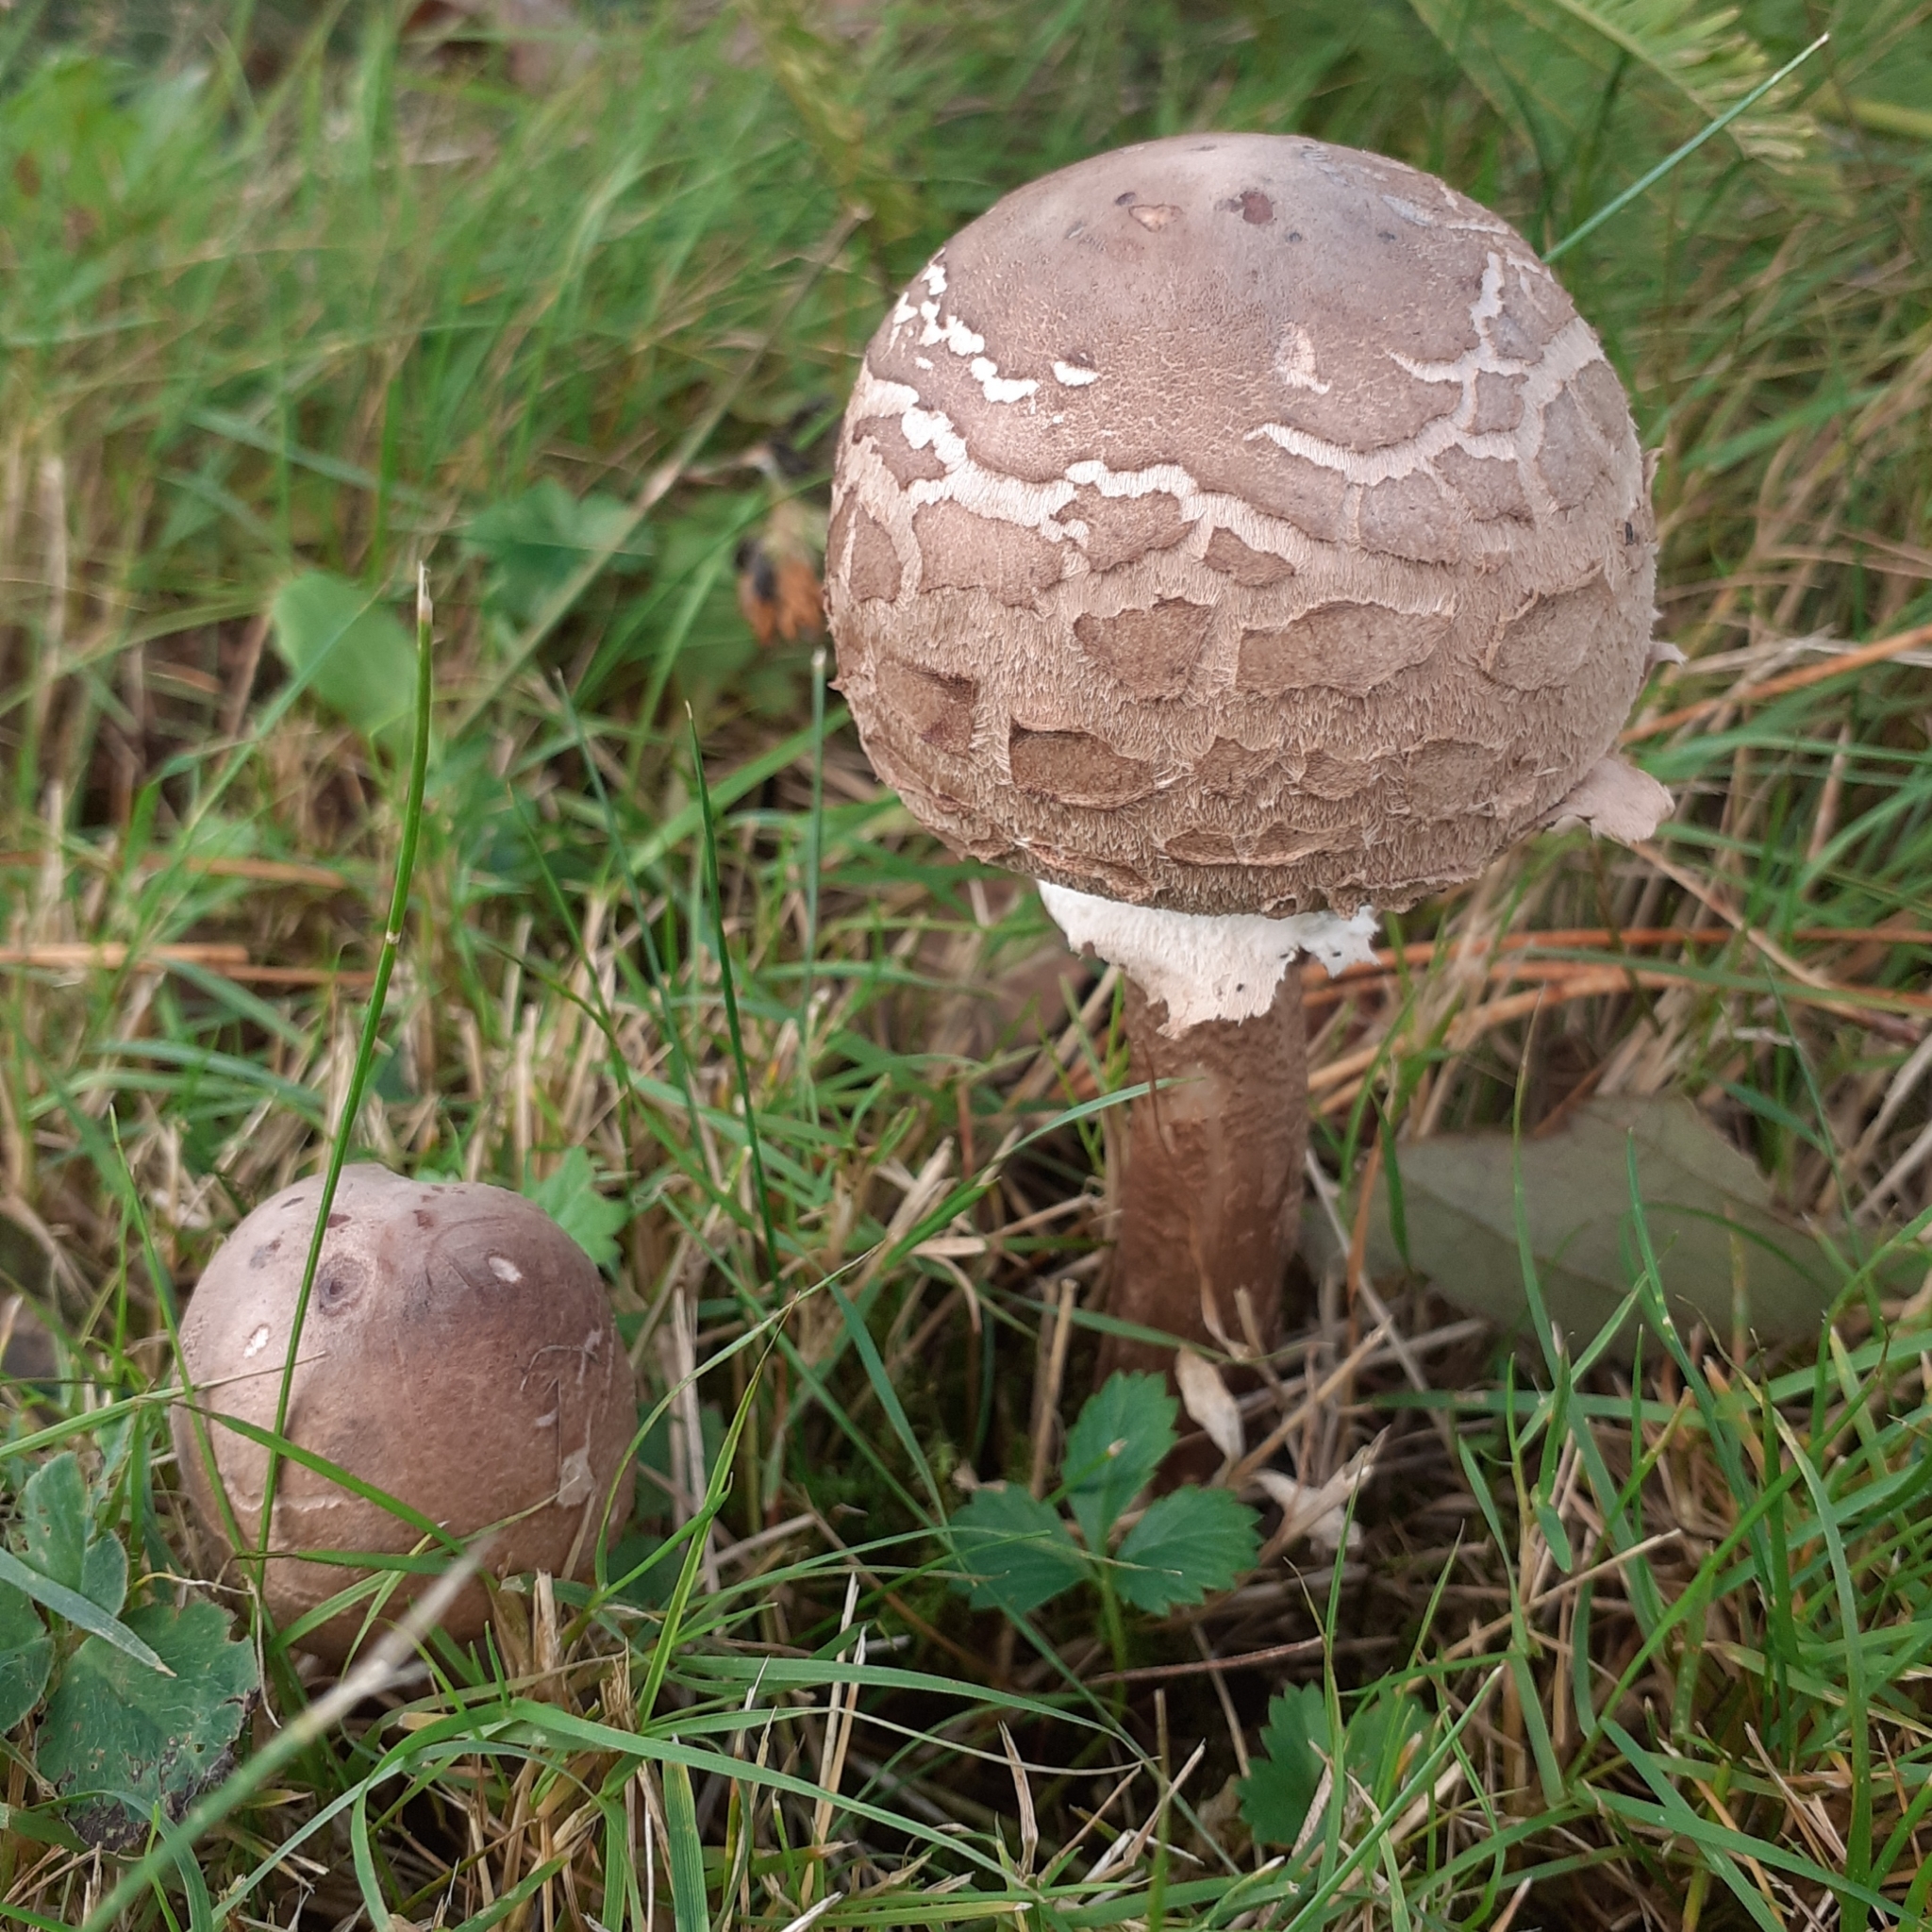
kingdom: Fungi
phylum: Basidiomycota
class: Agaricomycetes
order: Agaricales
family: Agaricaceae
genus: Macrolepiota
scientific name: Macrolepiota procera
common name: Parasol
